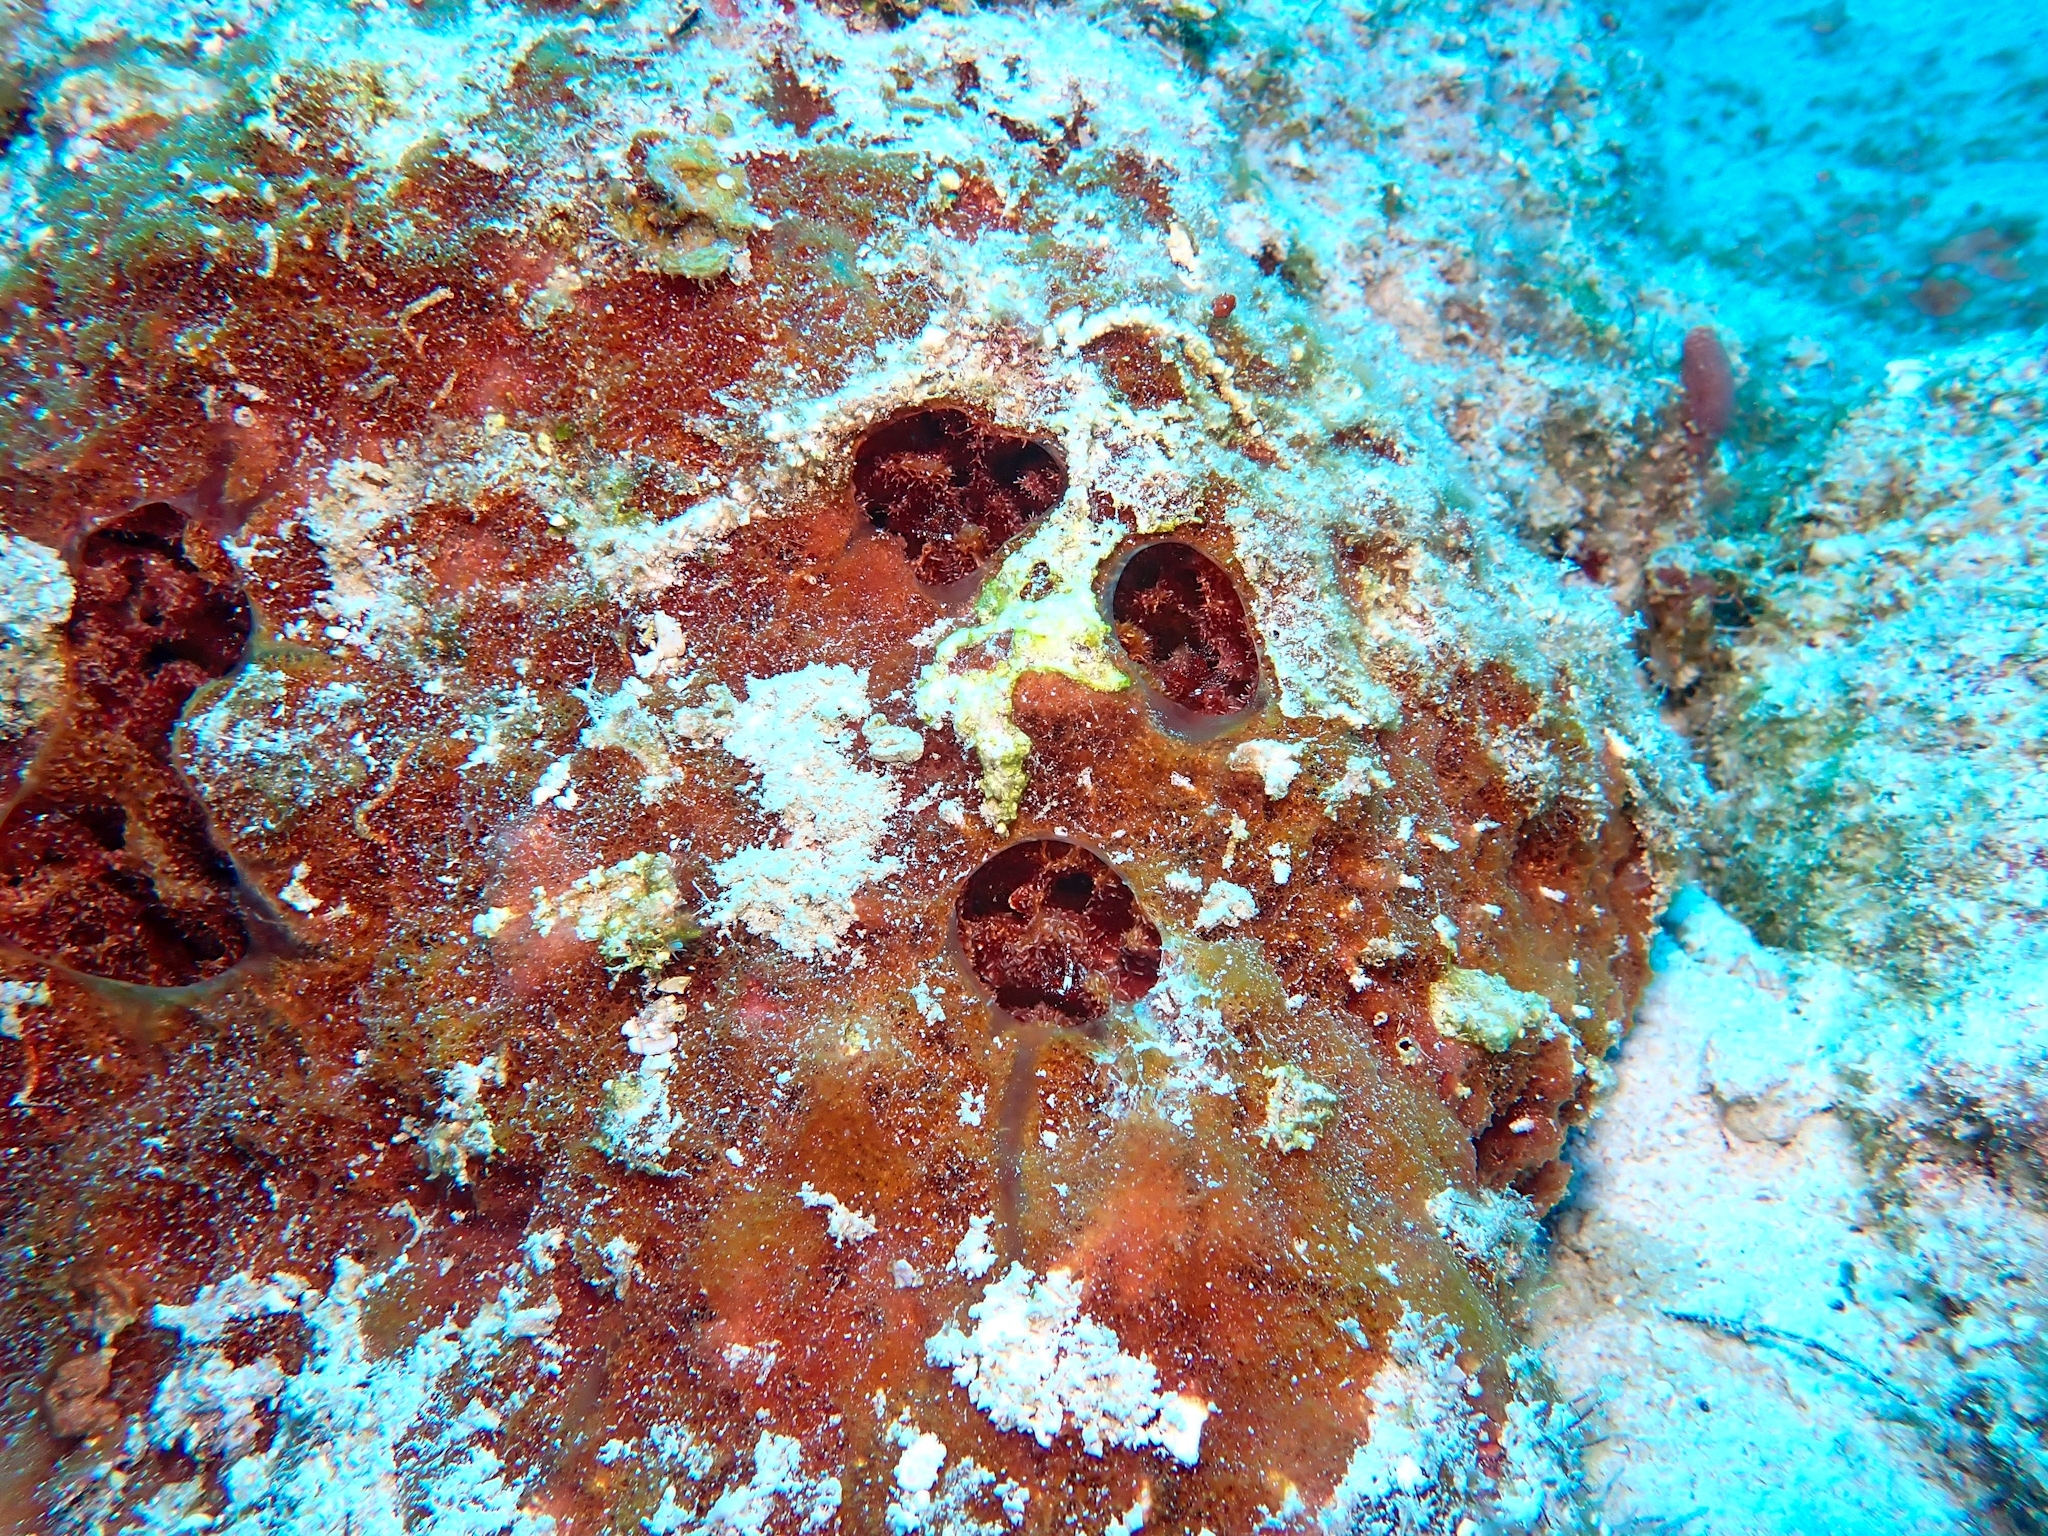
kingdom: Animalia
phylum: Porifera
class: Demospongiae
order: Biemnida
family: Biemnidae
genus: Neofibularia
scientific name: Neofibularia nolitangere
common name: Do-not-touch-me sponge
